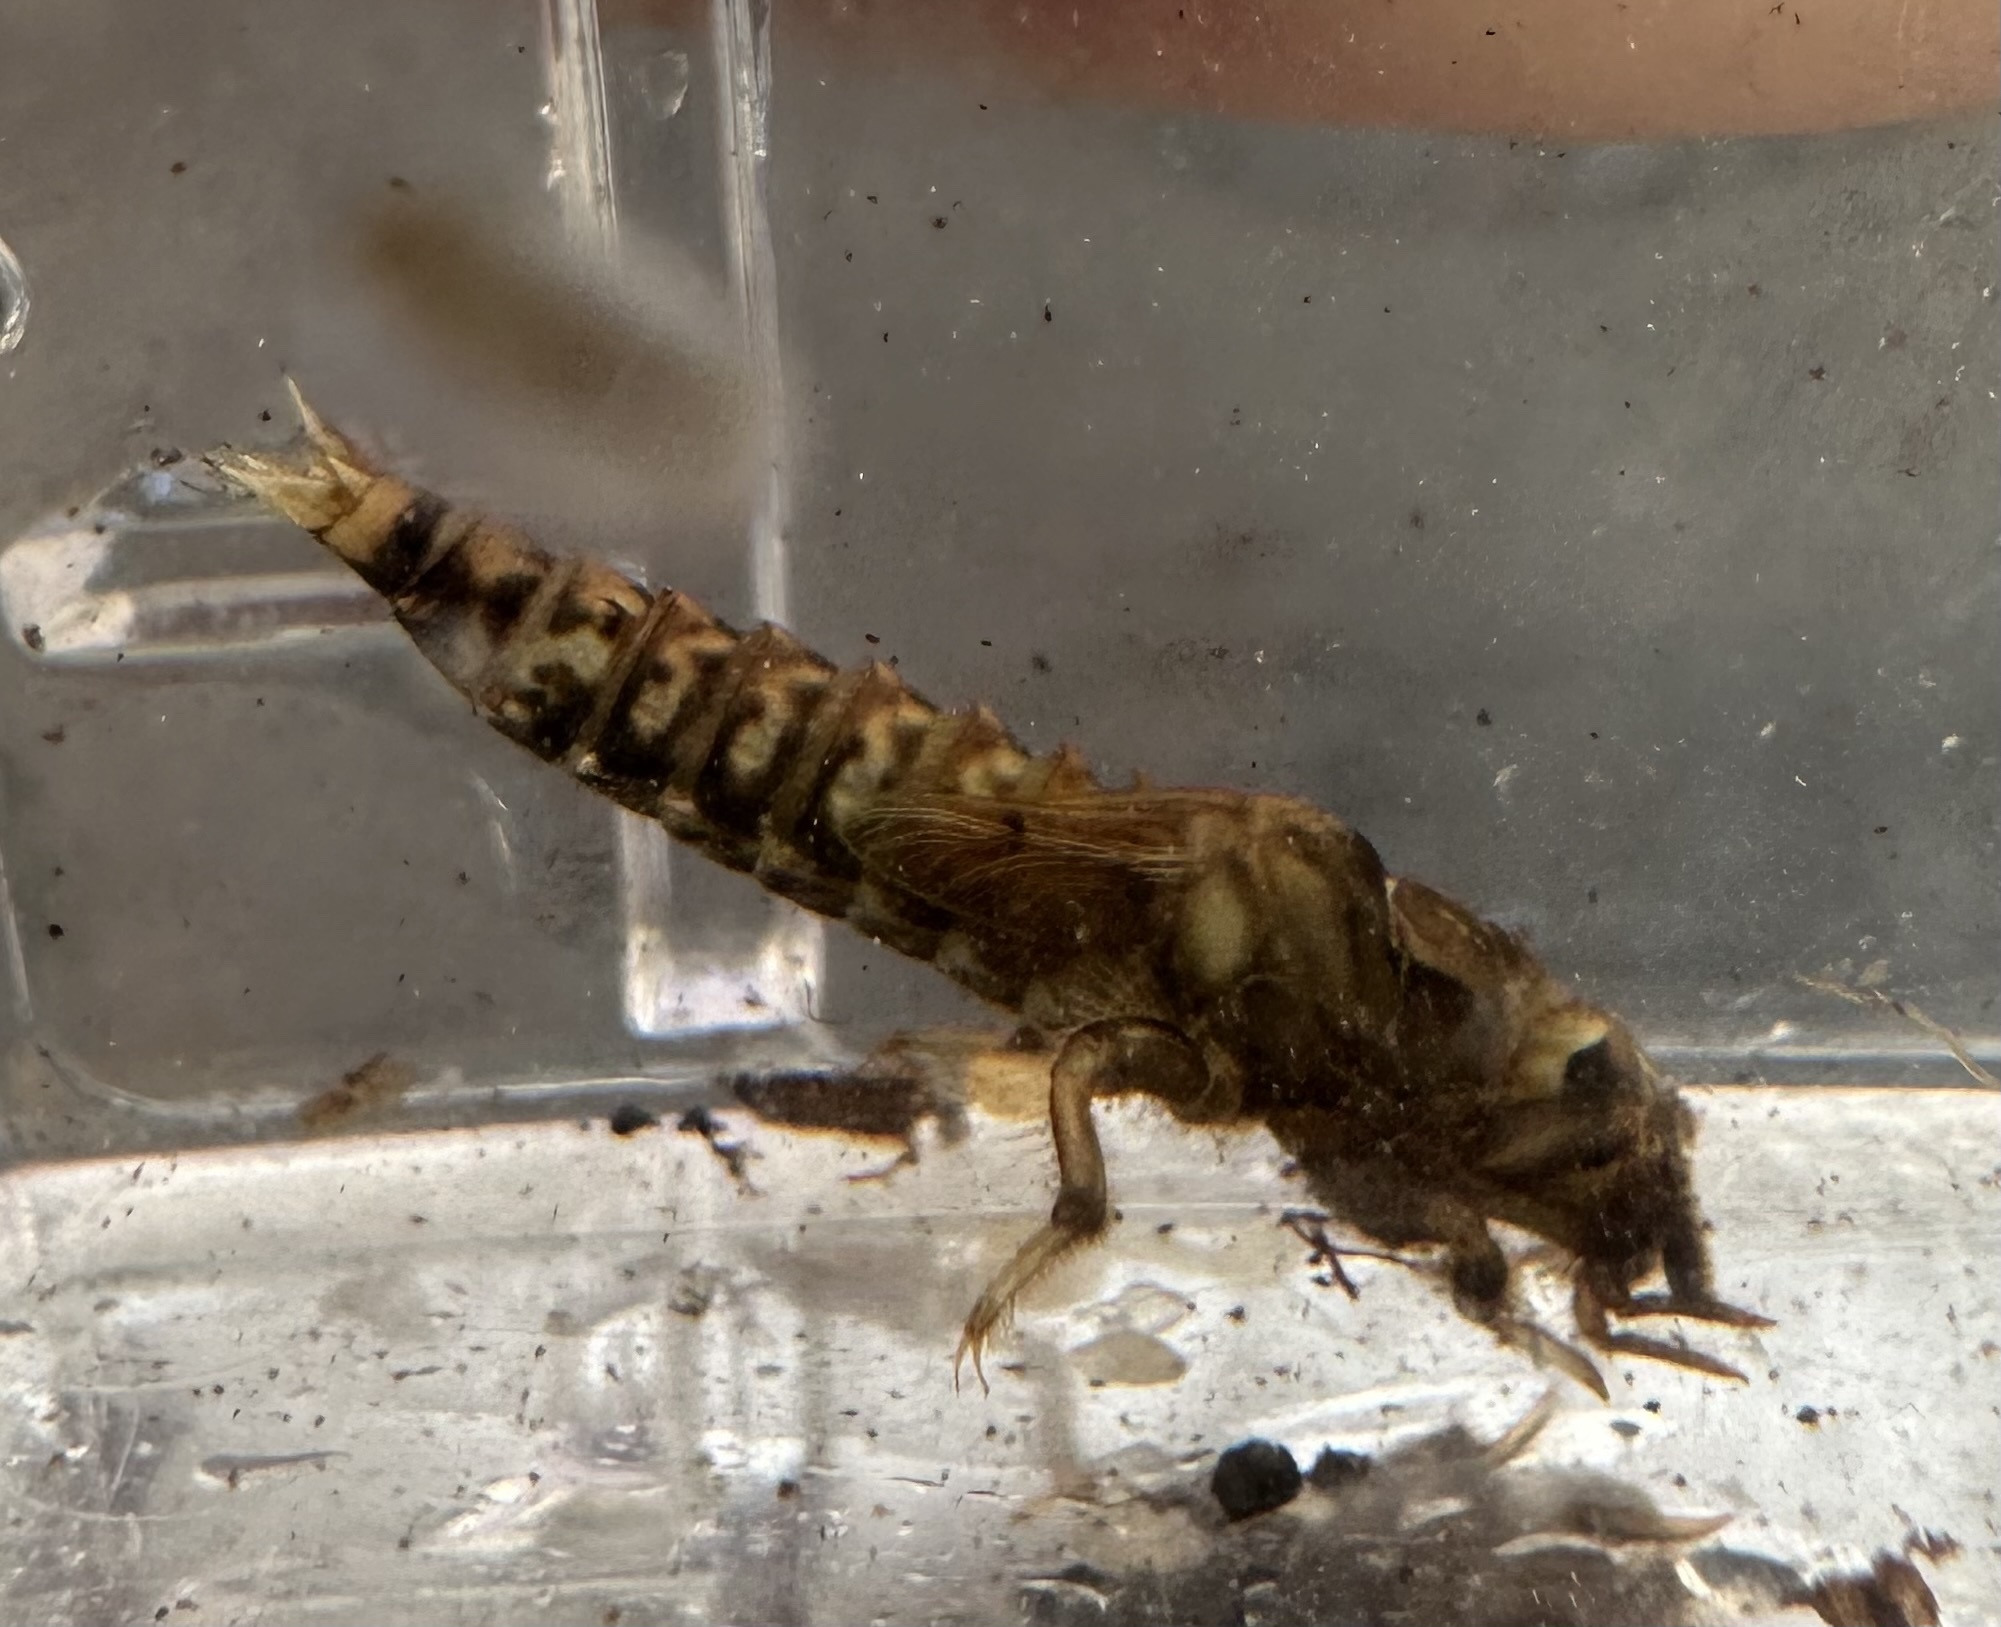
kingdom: Animalia
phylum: Arthropoda
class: Insecta
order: Odonata
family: Gomphidae
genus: Progomphus
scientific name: Progomphus obscurus
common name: Common sanddragon
